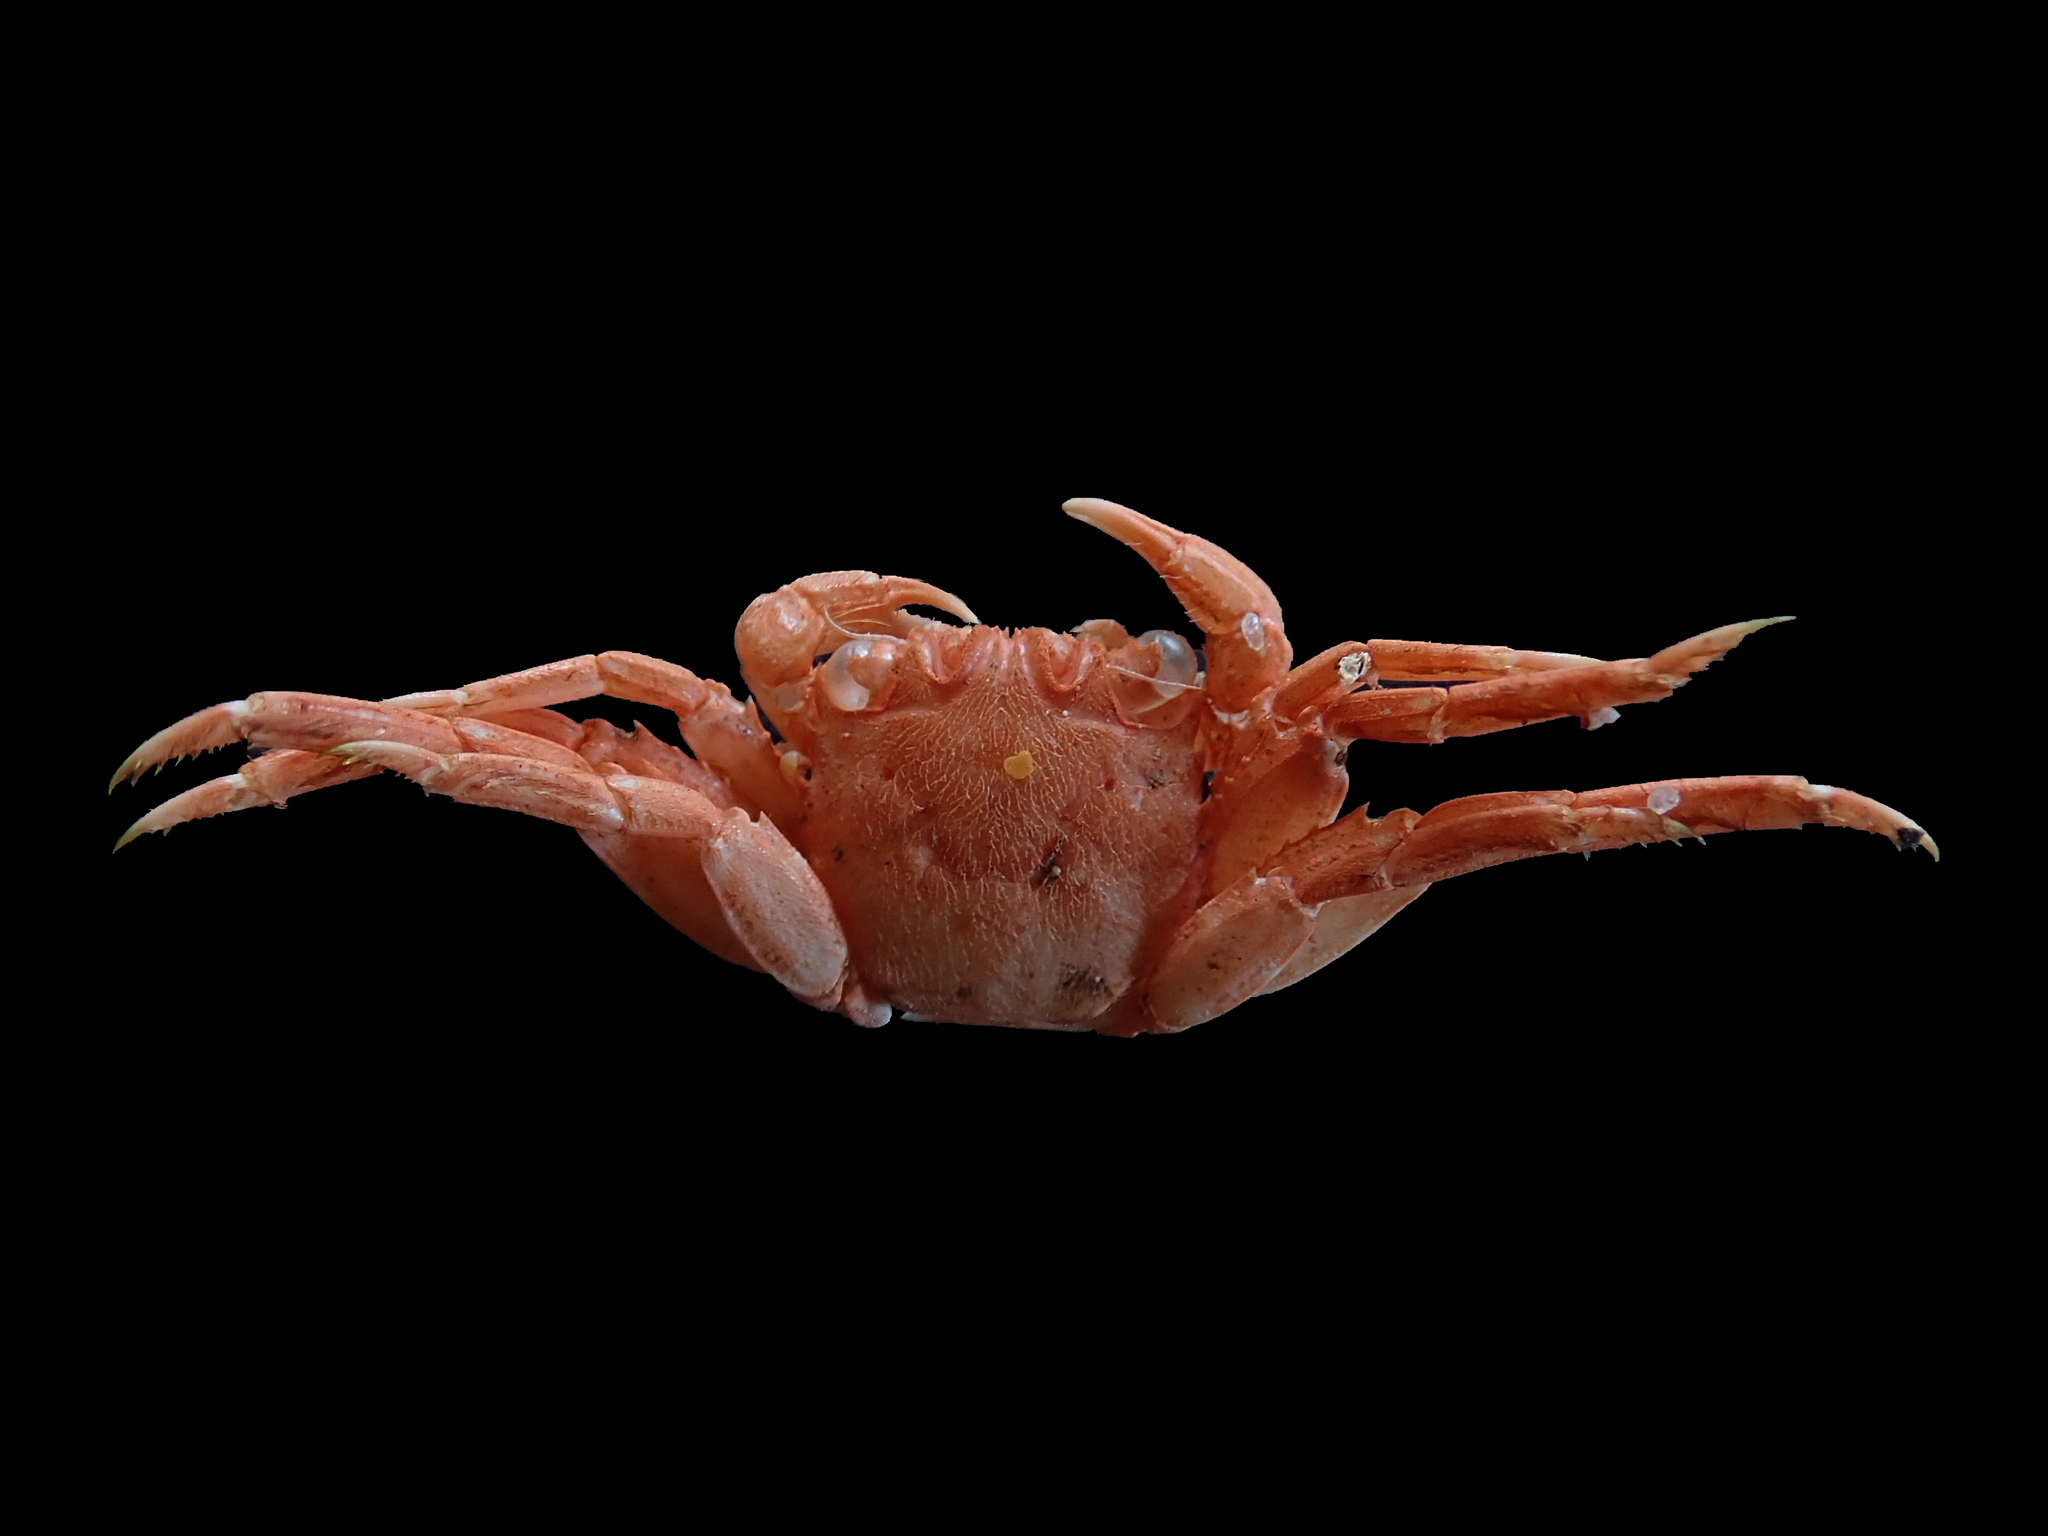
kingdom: Animalia
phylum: Arthropoda
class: Malacostraca
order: Decapoda
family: Plagusiidae
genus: Guinusia
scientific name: Guinusia chabrus
